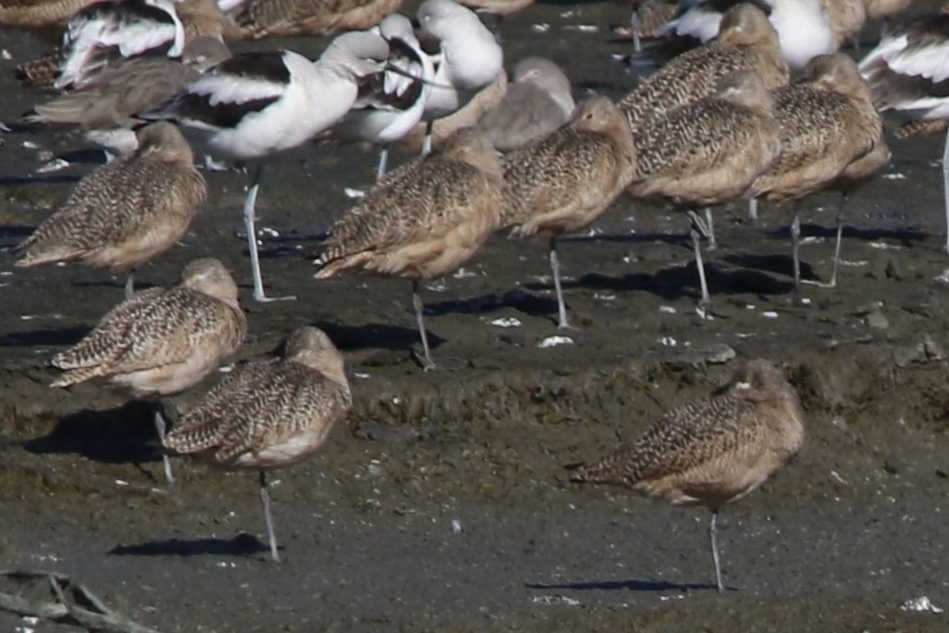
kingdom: Animalia
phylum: Chordata
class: Aves
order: Charadriiformes
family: Scolopacidae
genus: Limosa
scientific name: Limosa fedoa
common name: Marbled godwit
